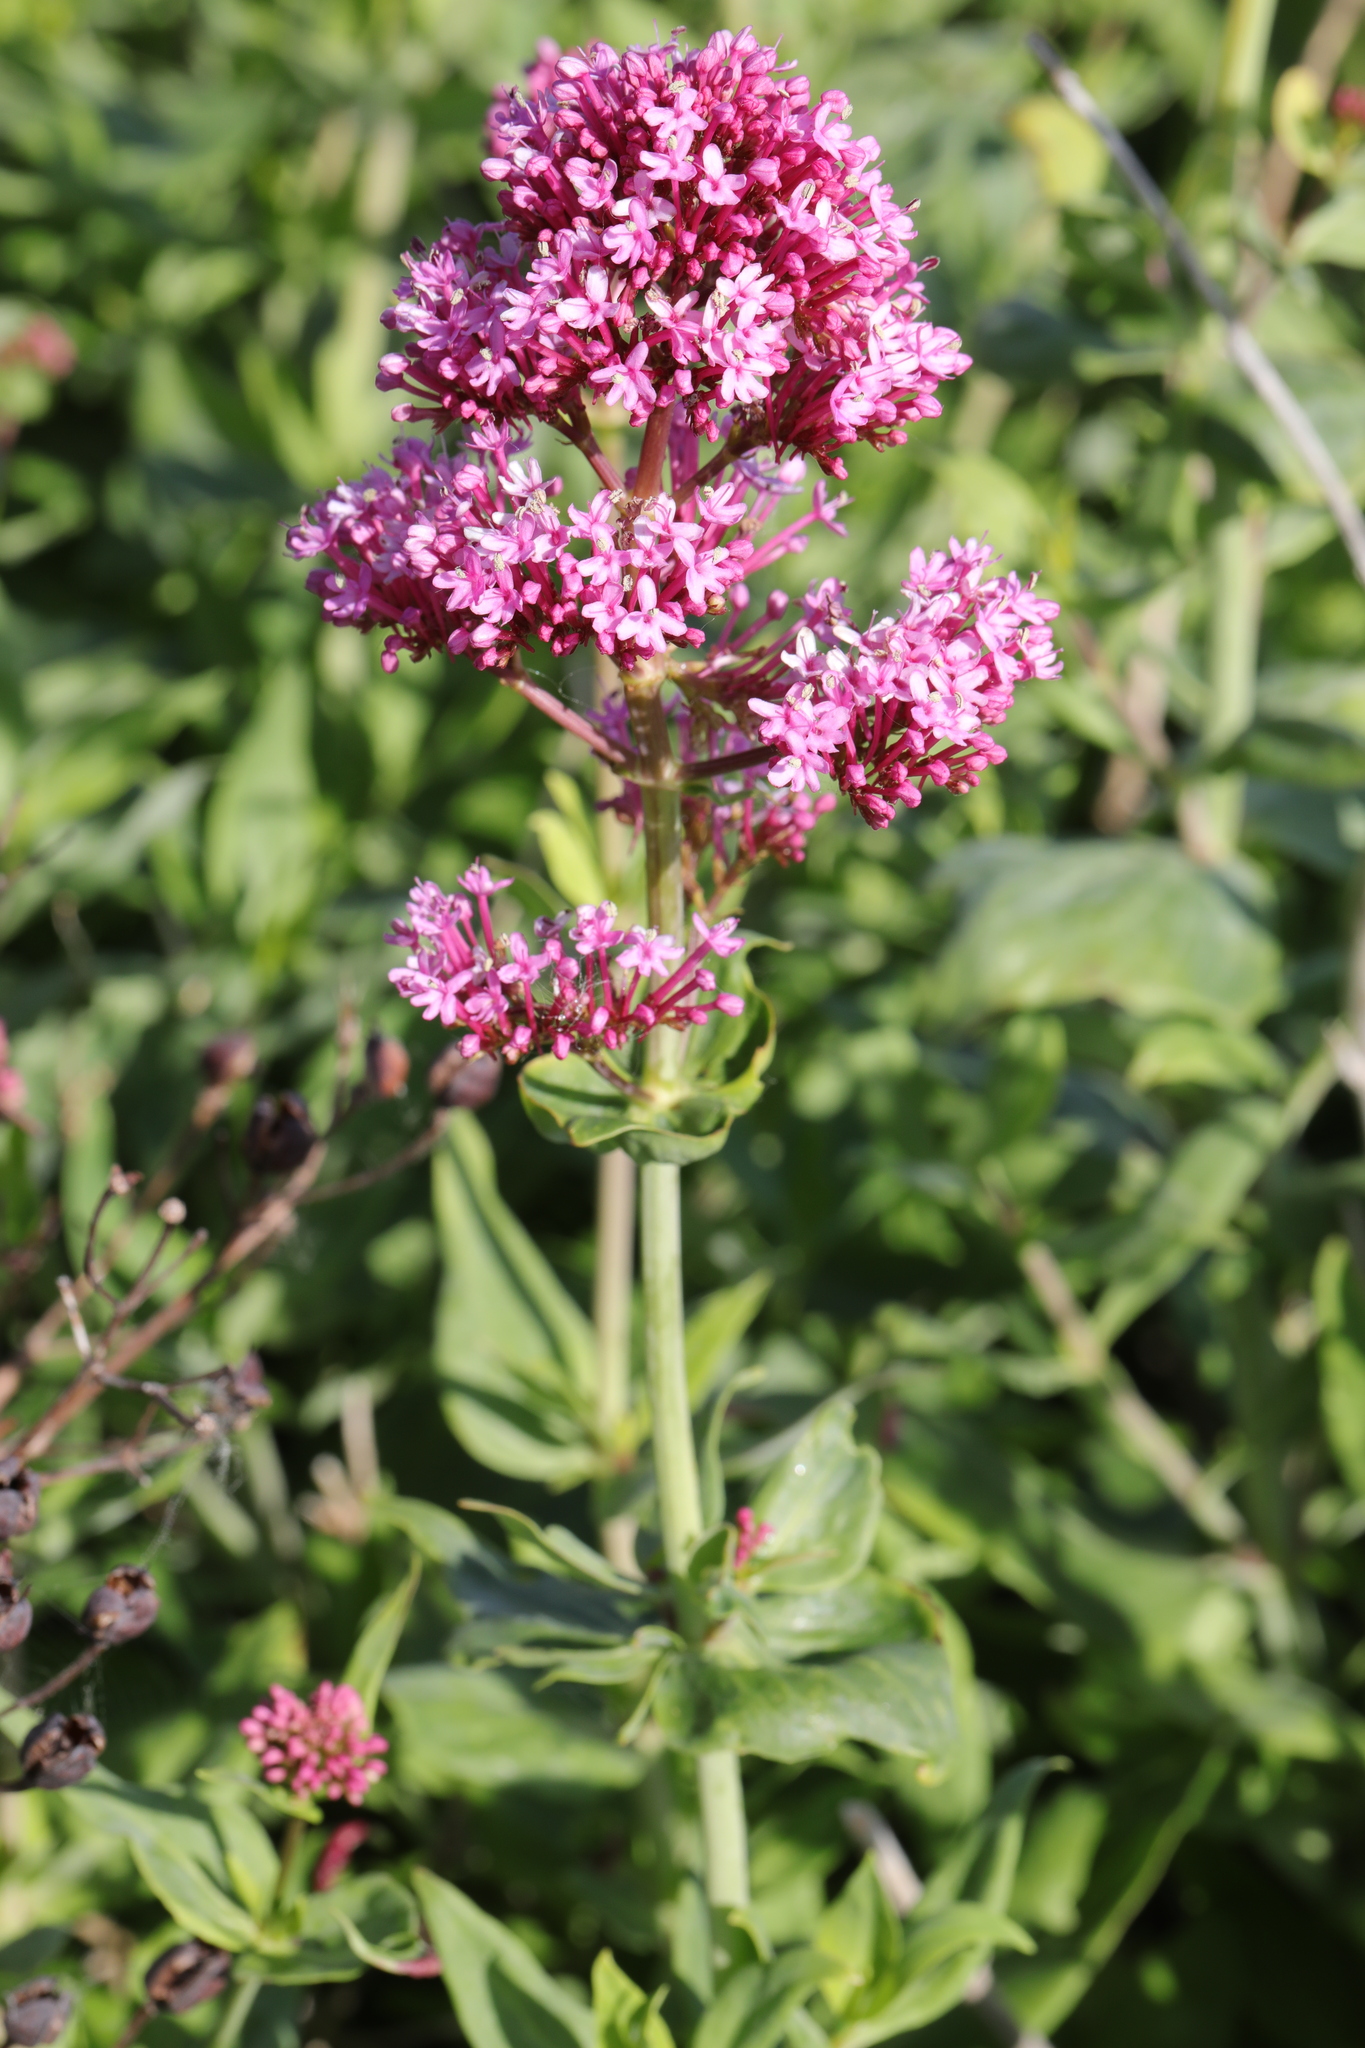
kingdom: Plantae
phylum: Tracheophyta
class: Magnoliopsida
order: Dipsacales
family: Caprifoliaceae
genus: Centranthus
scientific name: Centranthus ruber
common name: Red valerian
